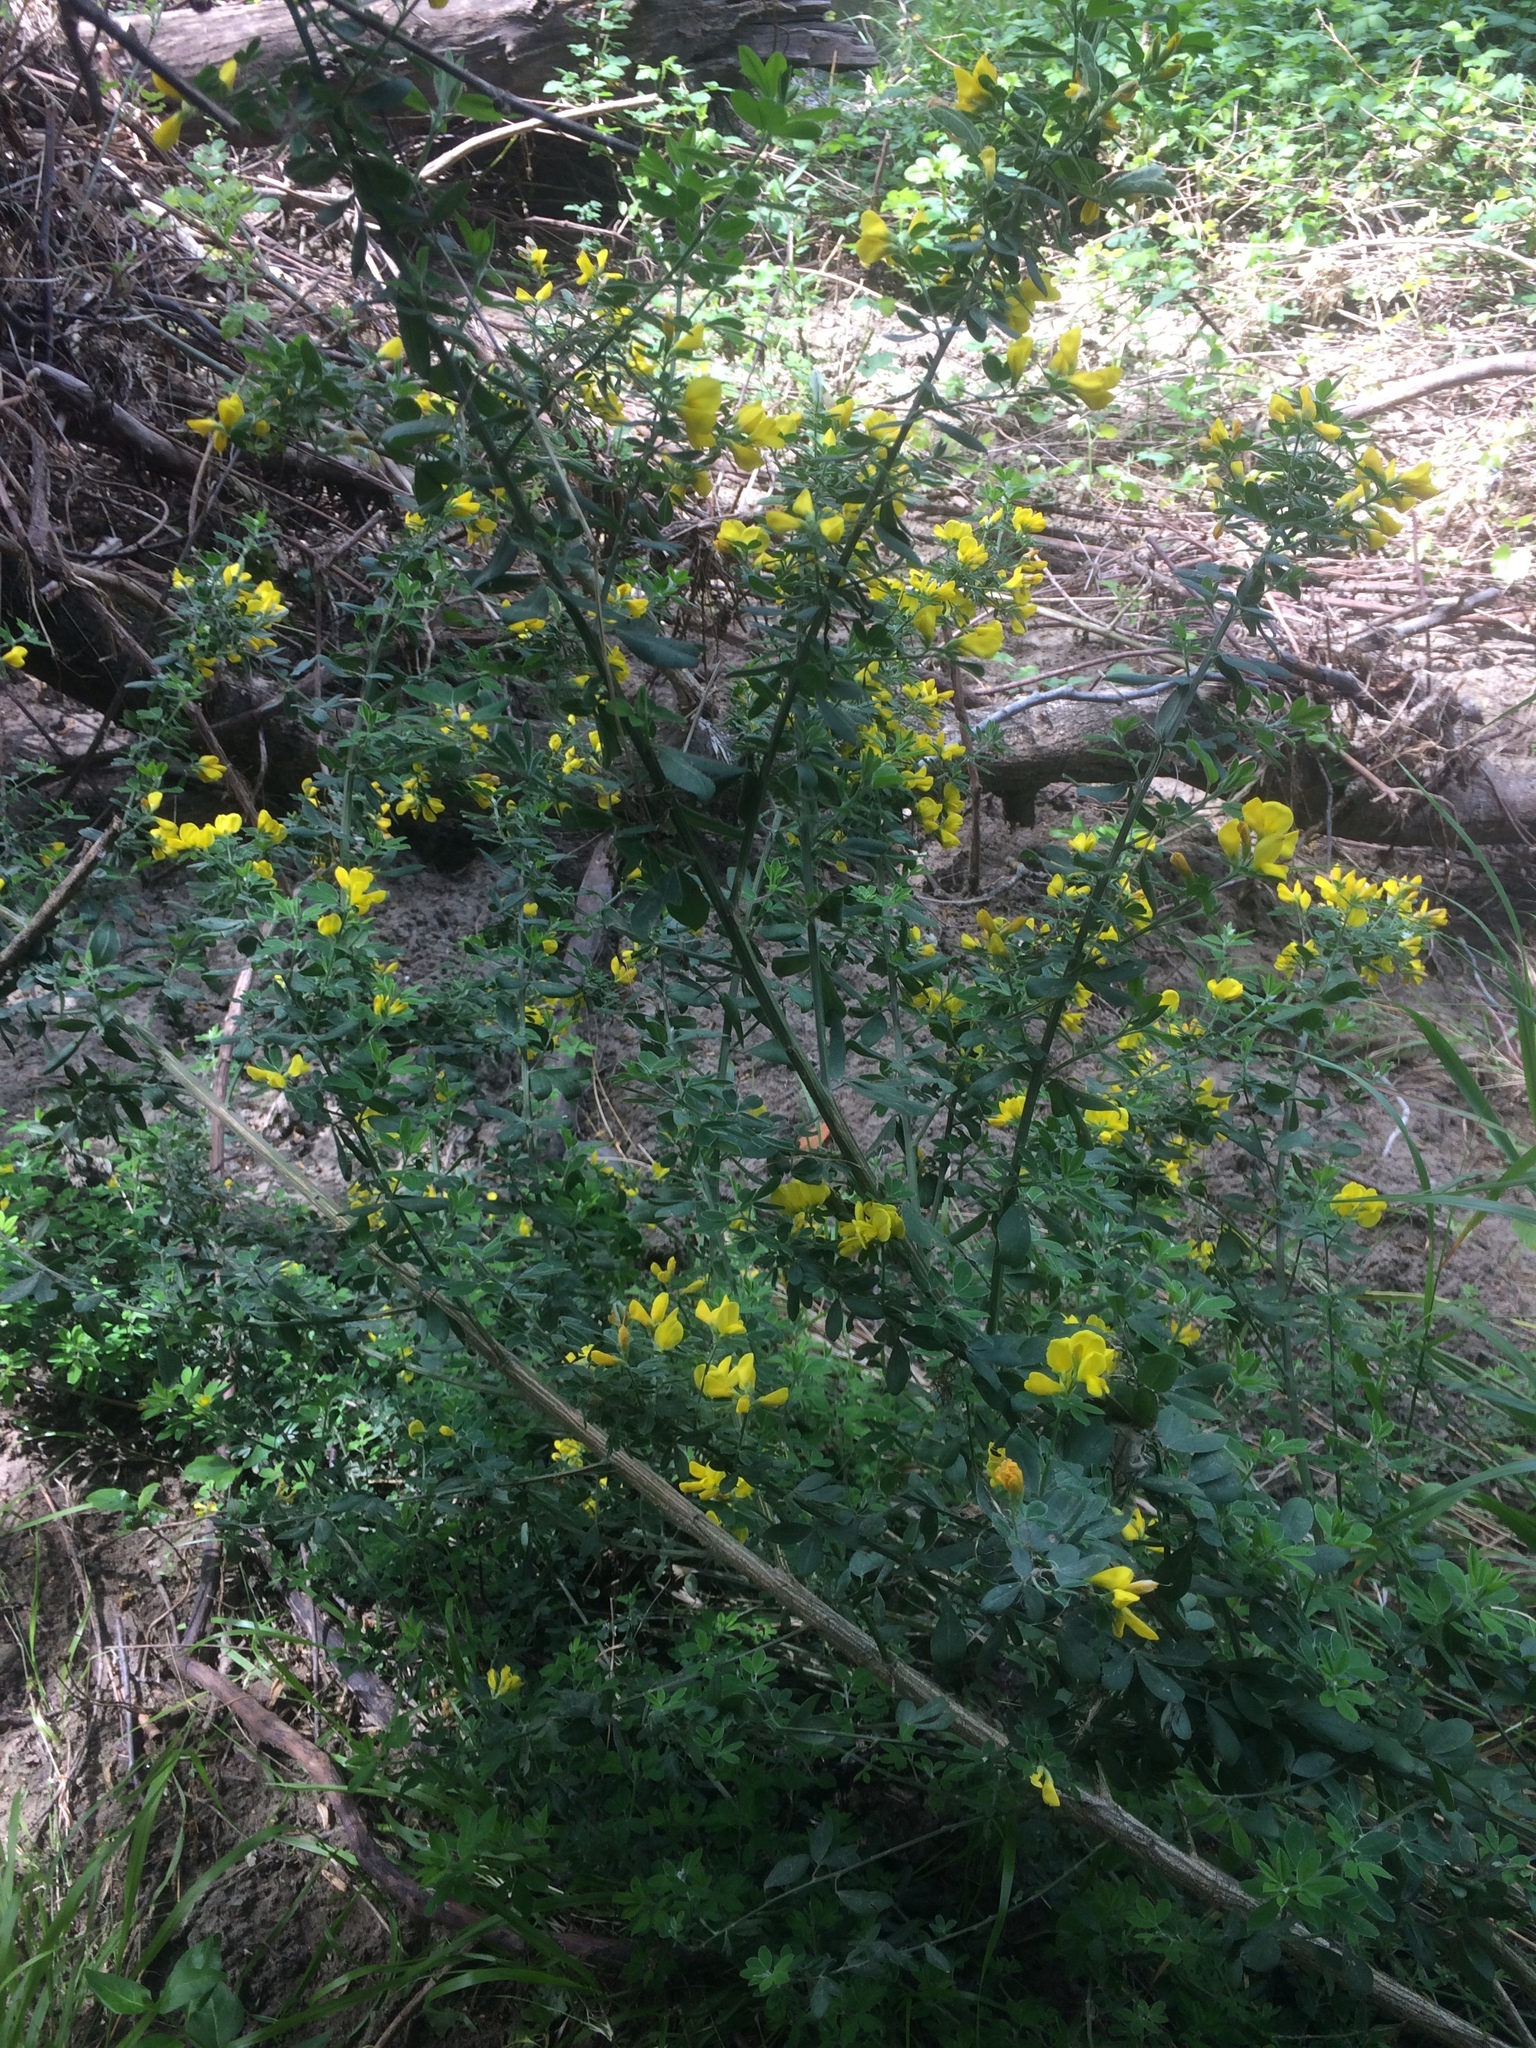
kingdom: Plantae
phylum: Tracheophyta
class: Magnoliopsida
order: Fabales
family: Fabaceae
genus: Genista
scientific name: Genista monspessulana
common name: Montpellier broom
